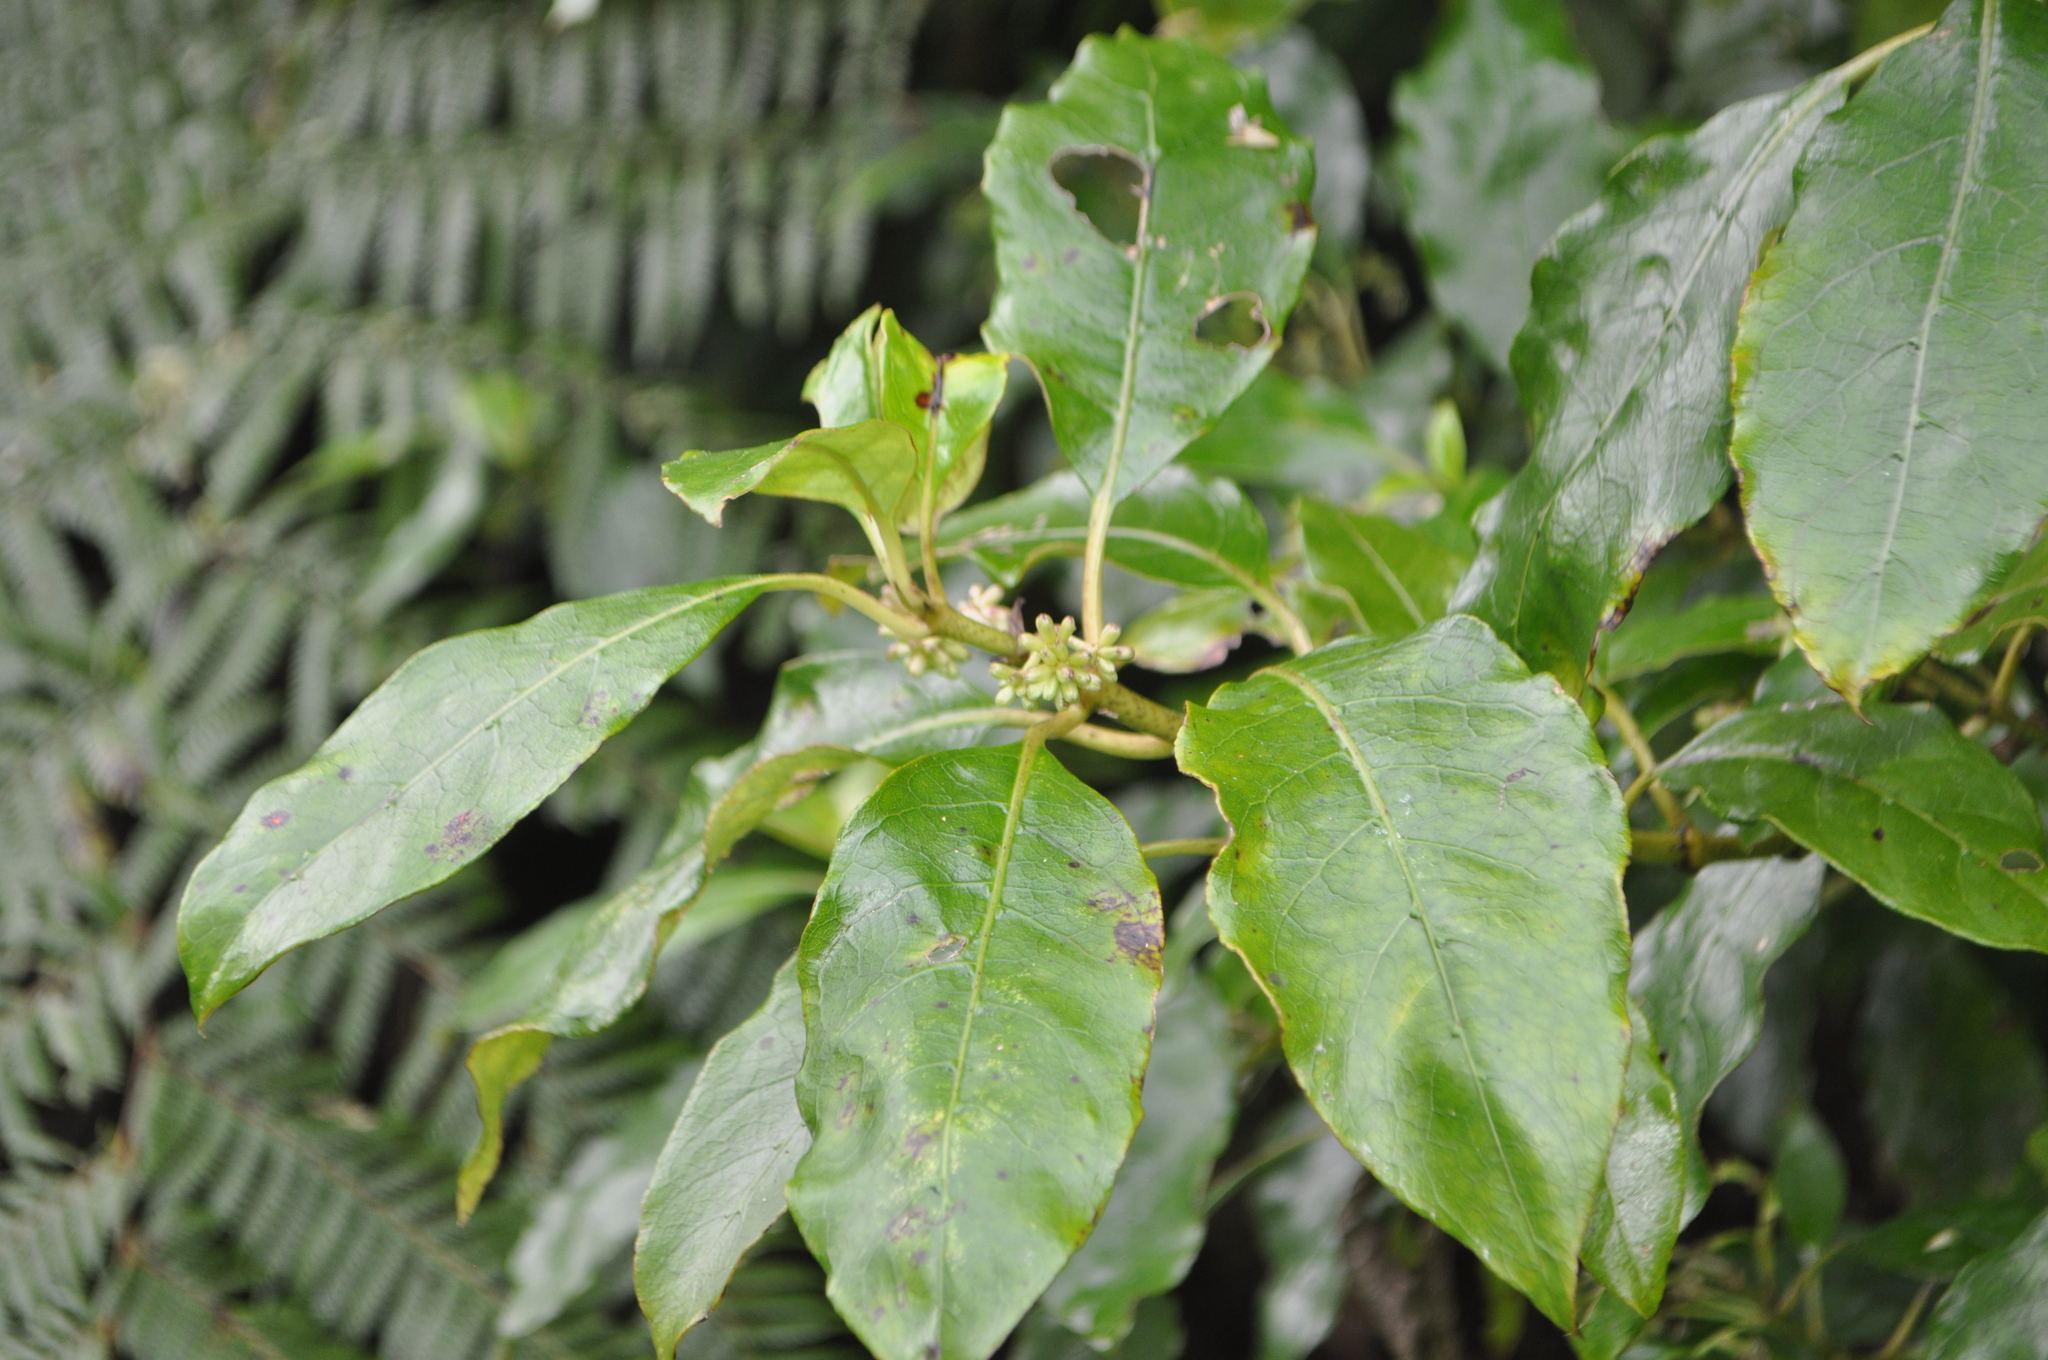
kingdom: Plantae
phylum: Tracheophyta
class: Magnoliopsida
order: Gentianales
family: Rubiaceae
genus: Coprosma
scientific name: Coprosma autumnalis
